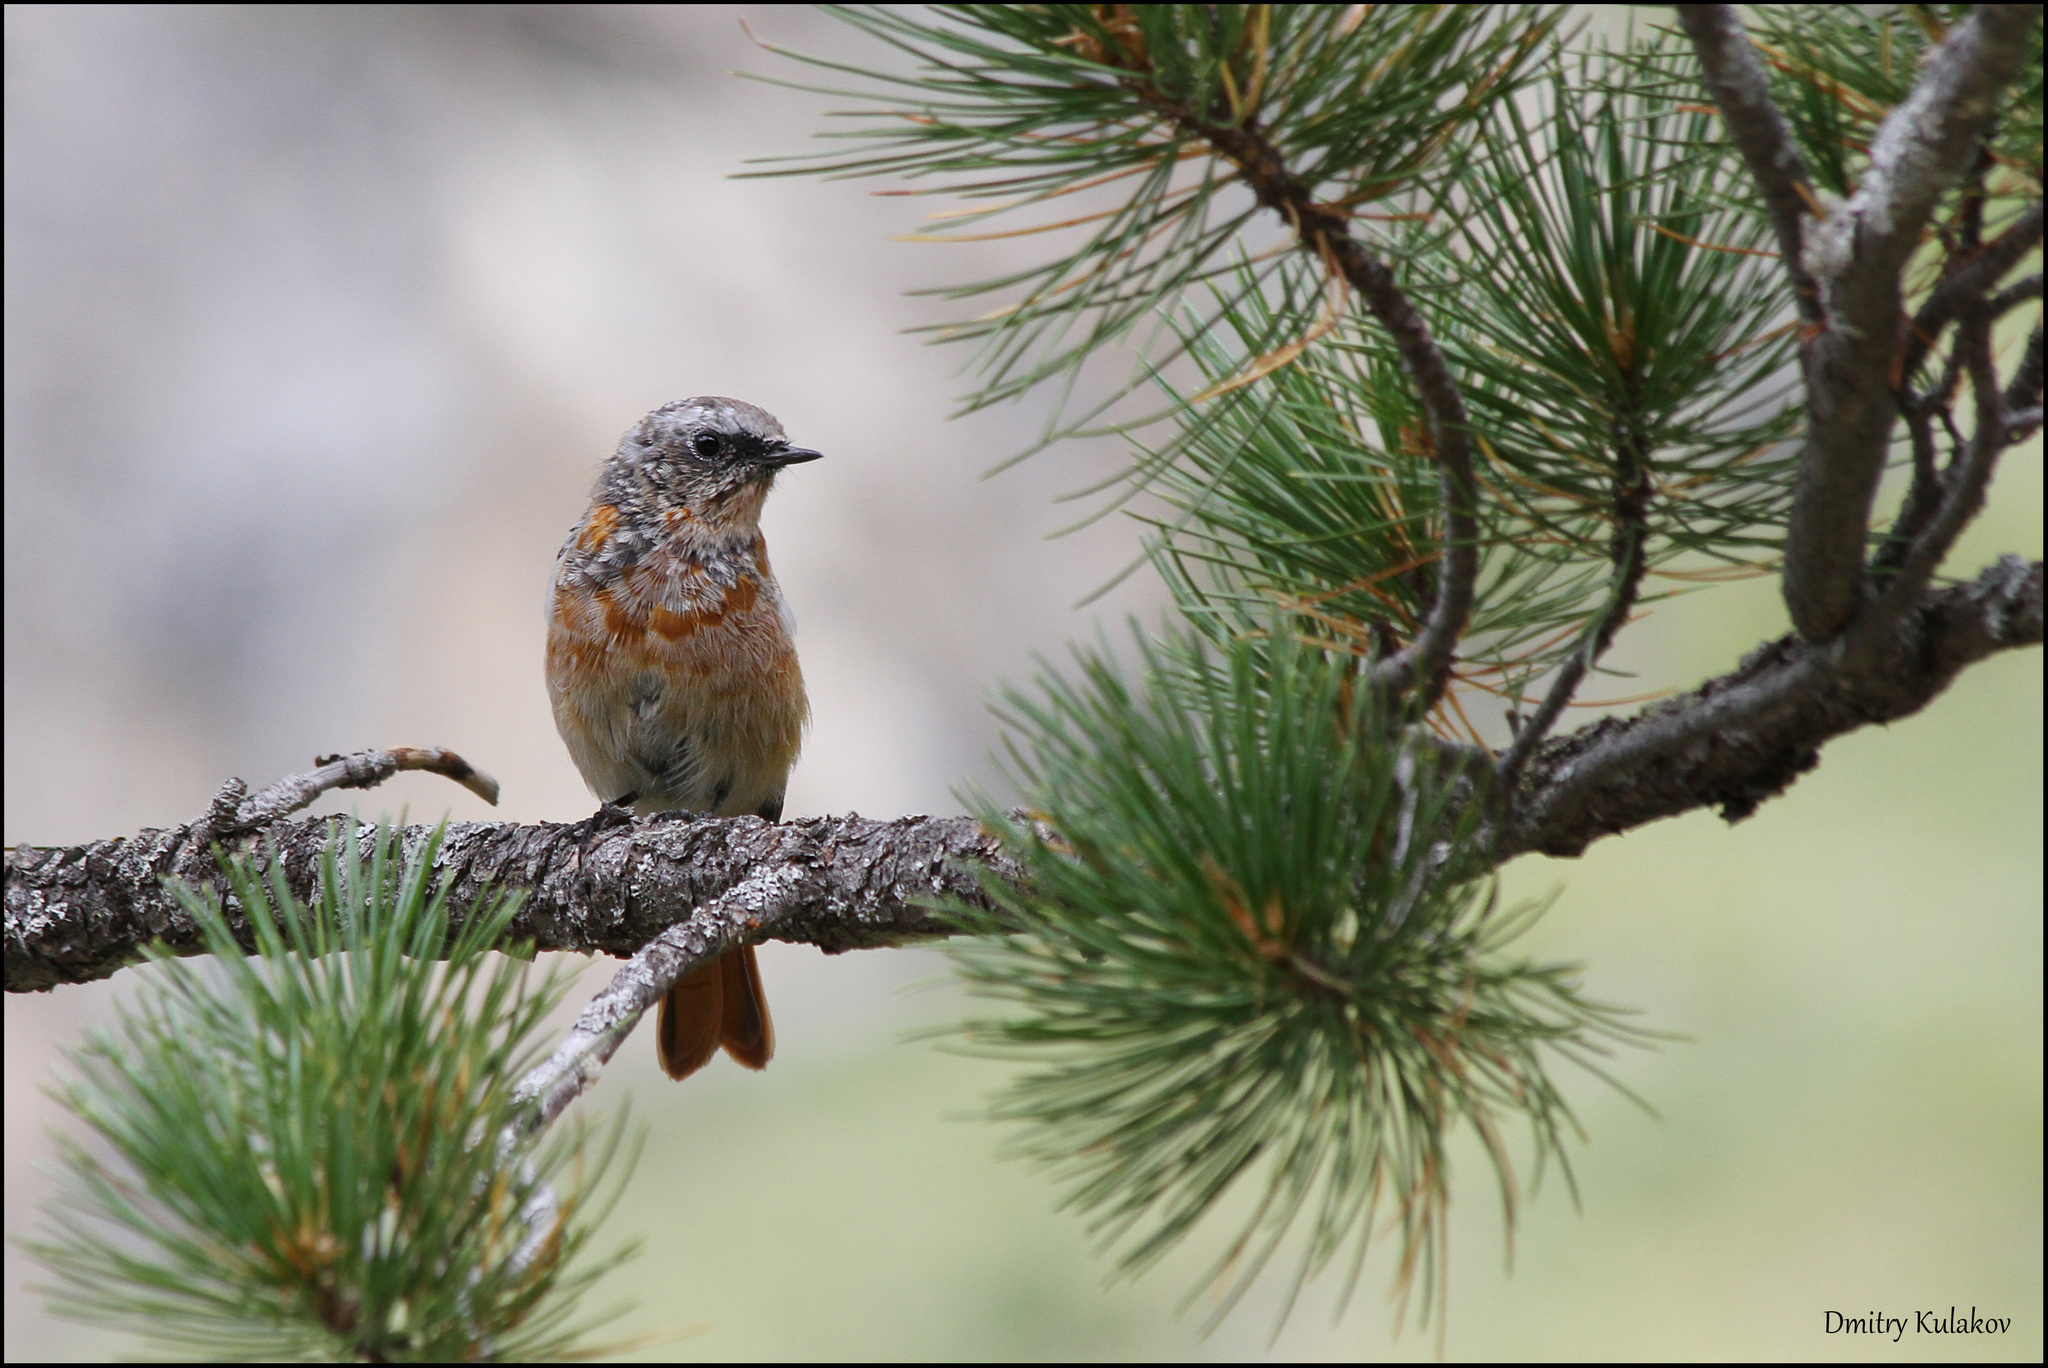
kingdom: Animalia
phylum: Chordata
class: Aves
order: Passeriformes
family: Muscicapidae
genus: Phoenicurus
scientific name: Phoenicurus erythronotus
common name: Eversmann's redstart
